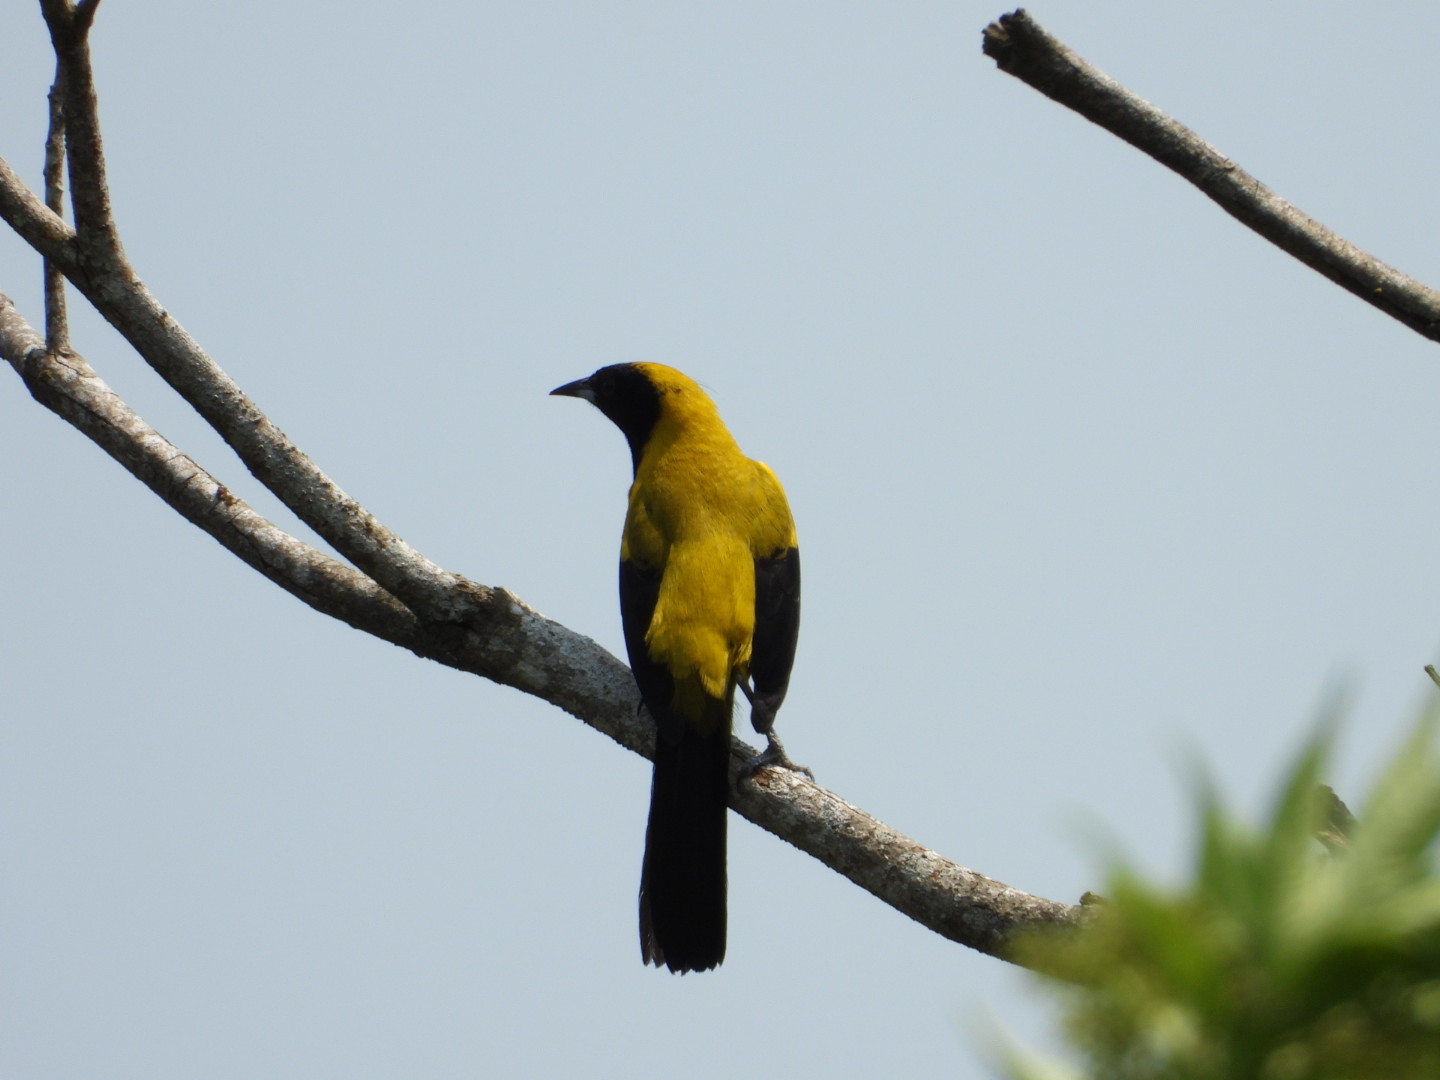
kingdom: Animalia
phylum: Chordata
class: Aves
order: Passeriformes
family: Icteridae
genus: Icterus
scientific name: Icterus prosthemelas
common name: Black-cowled oriole
